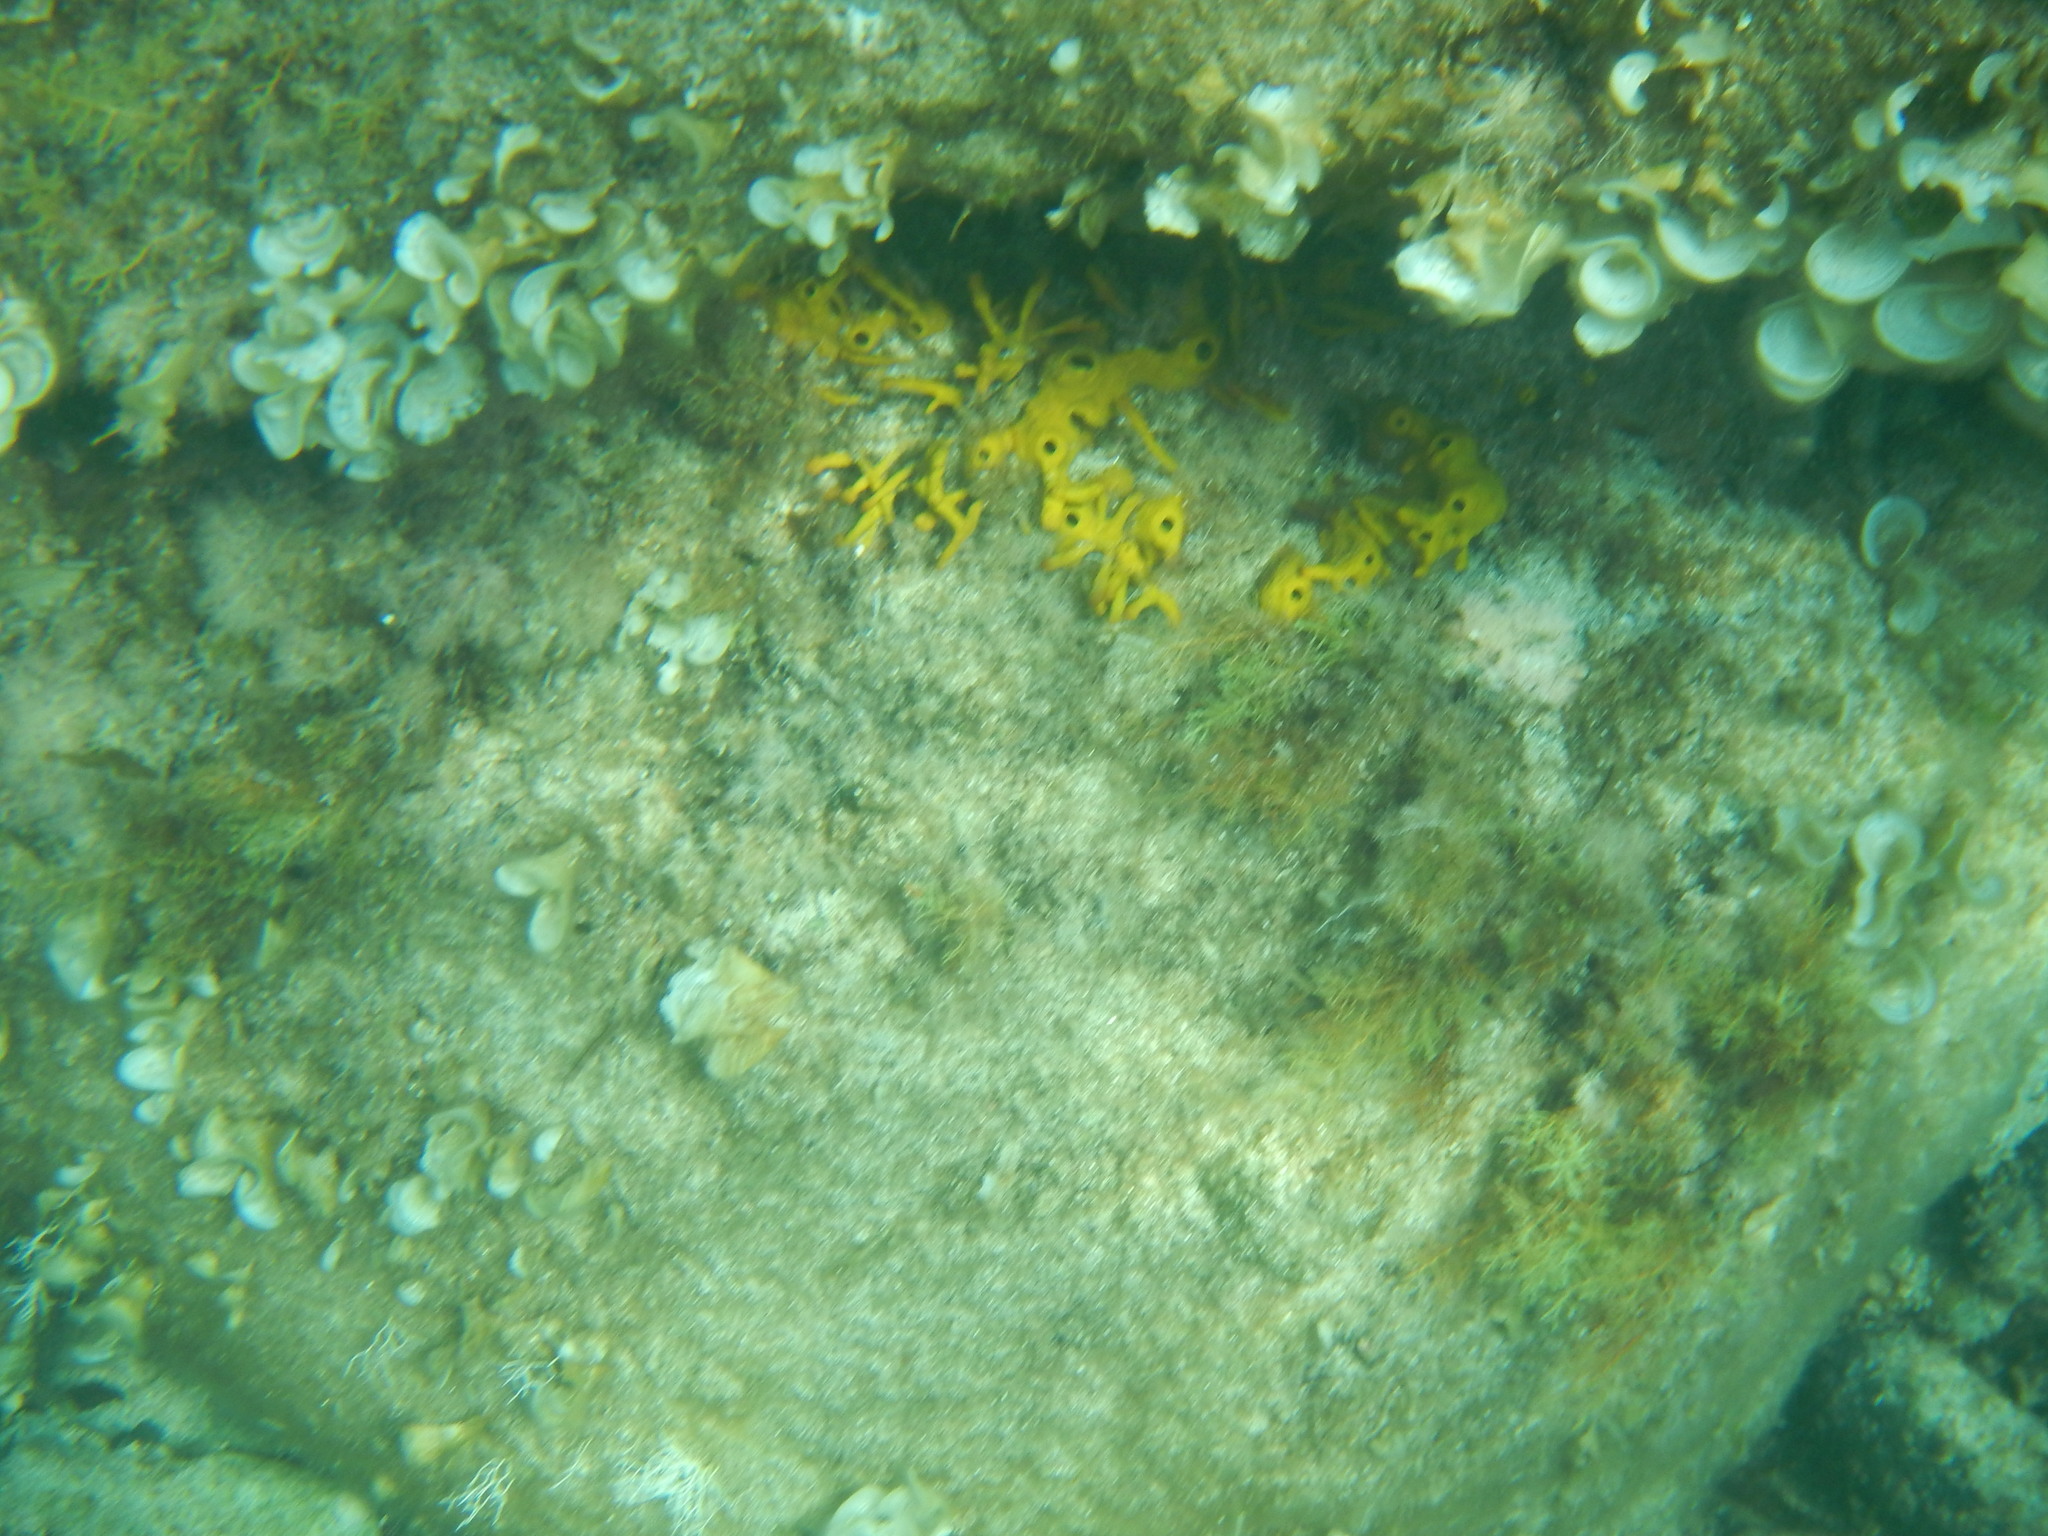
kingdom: Animalia
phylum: Porifera
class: Demospongiae
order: Verongiida
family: Aplysinidae
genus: Aplysina
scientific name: Aplysina aerophoba
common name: Aureate sponge
